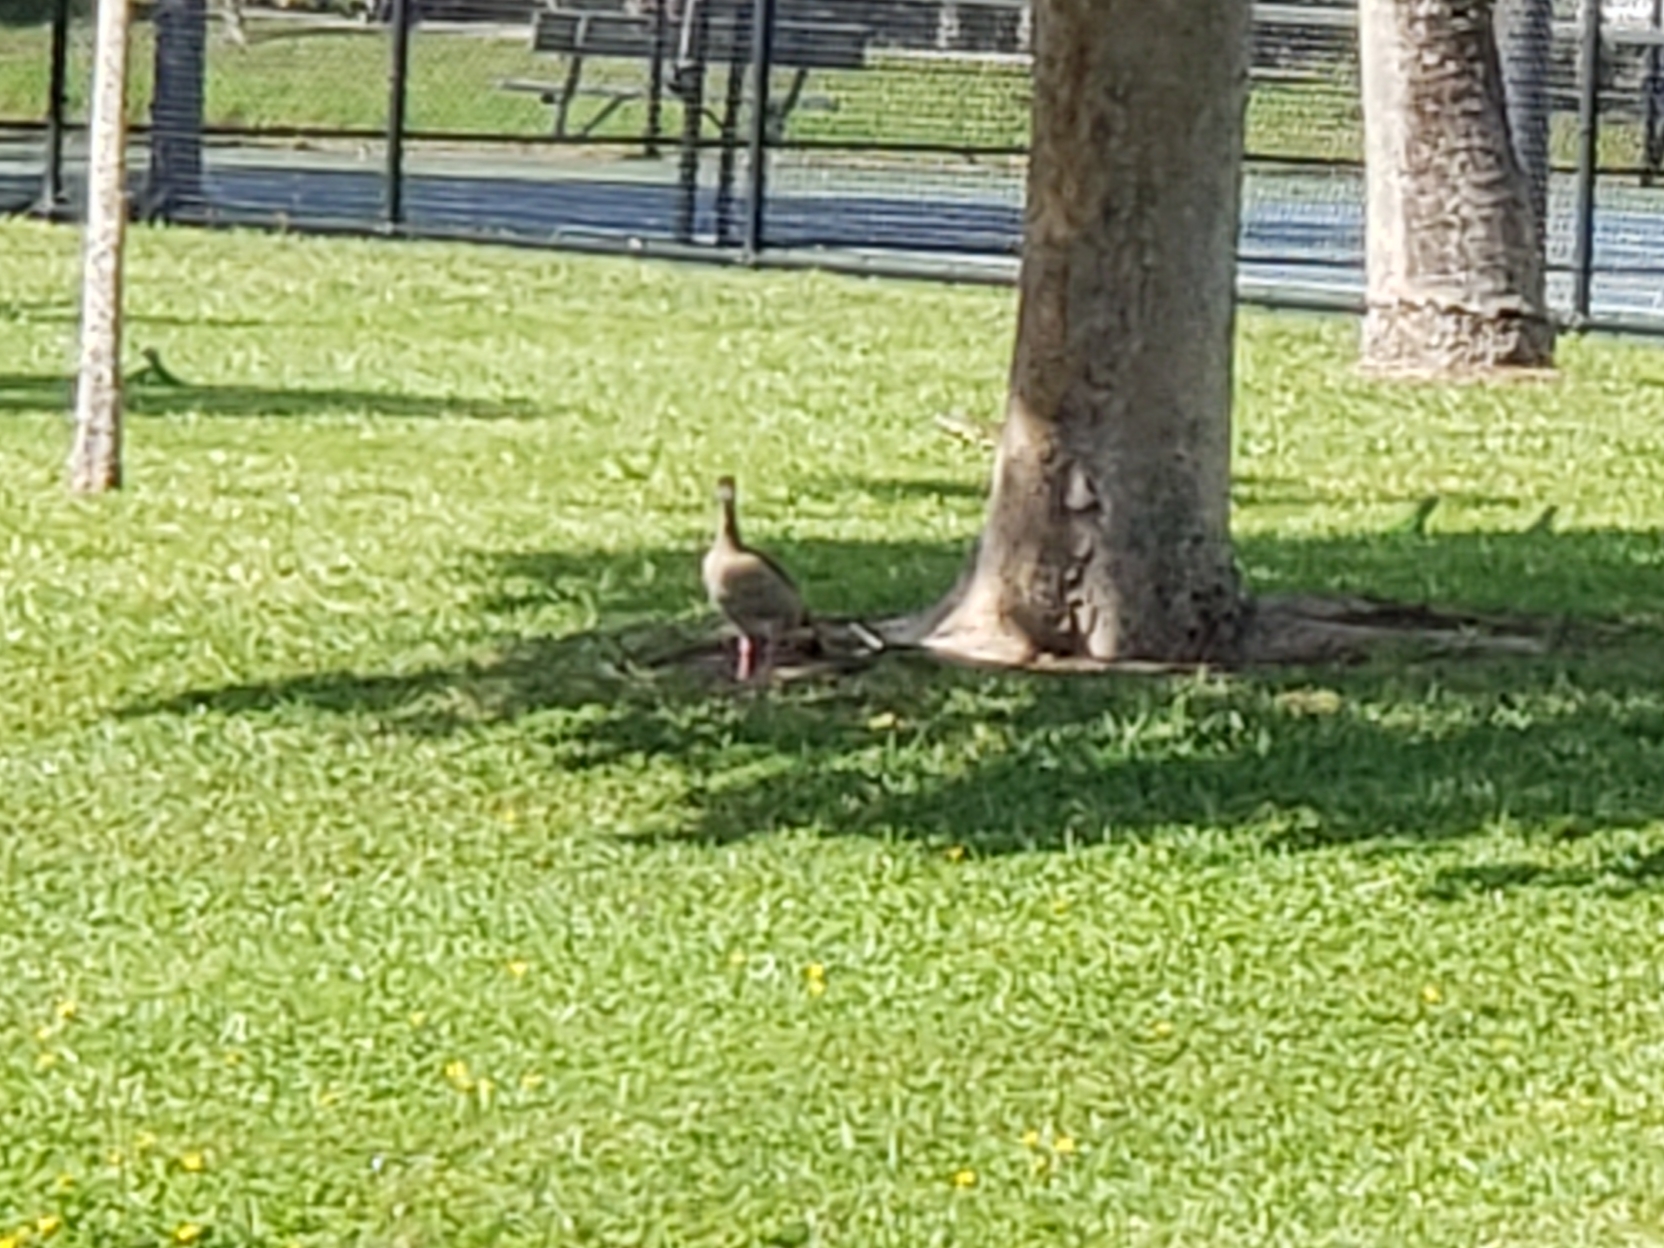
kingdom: Animalia
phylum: Chordata
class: Aves
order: Anseriformes
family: Anatidae
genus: Alopochen
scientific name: Alopochen aegyptiaca
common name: Egyptian goose
